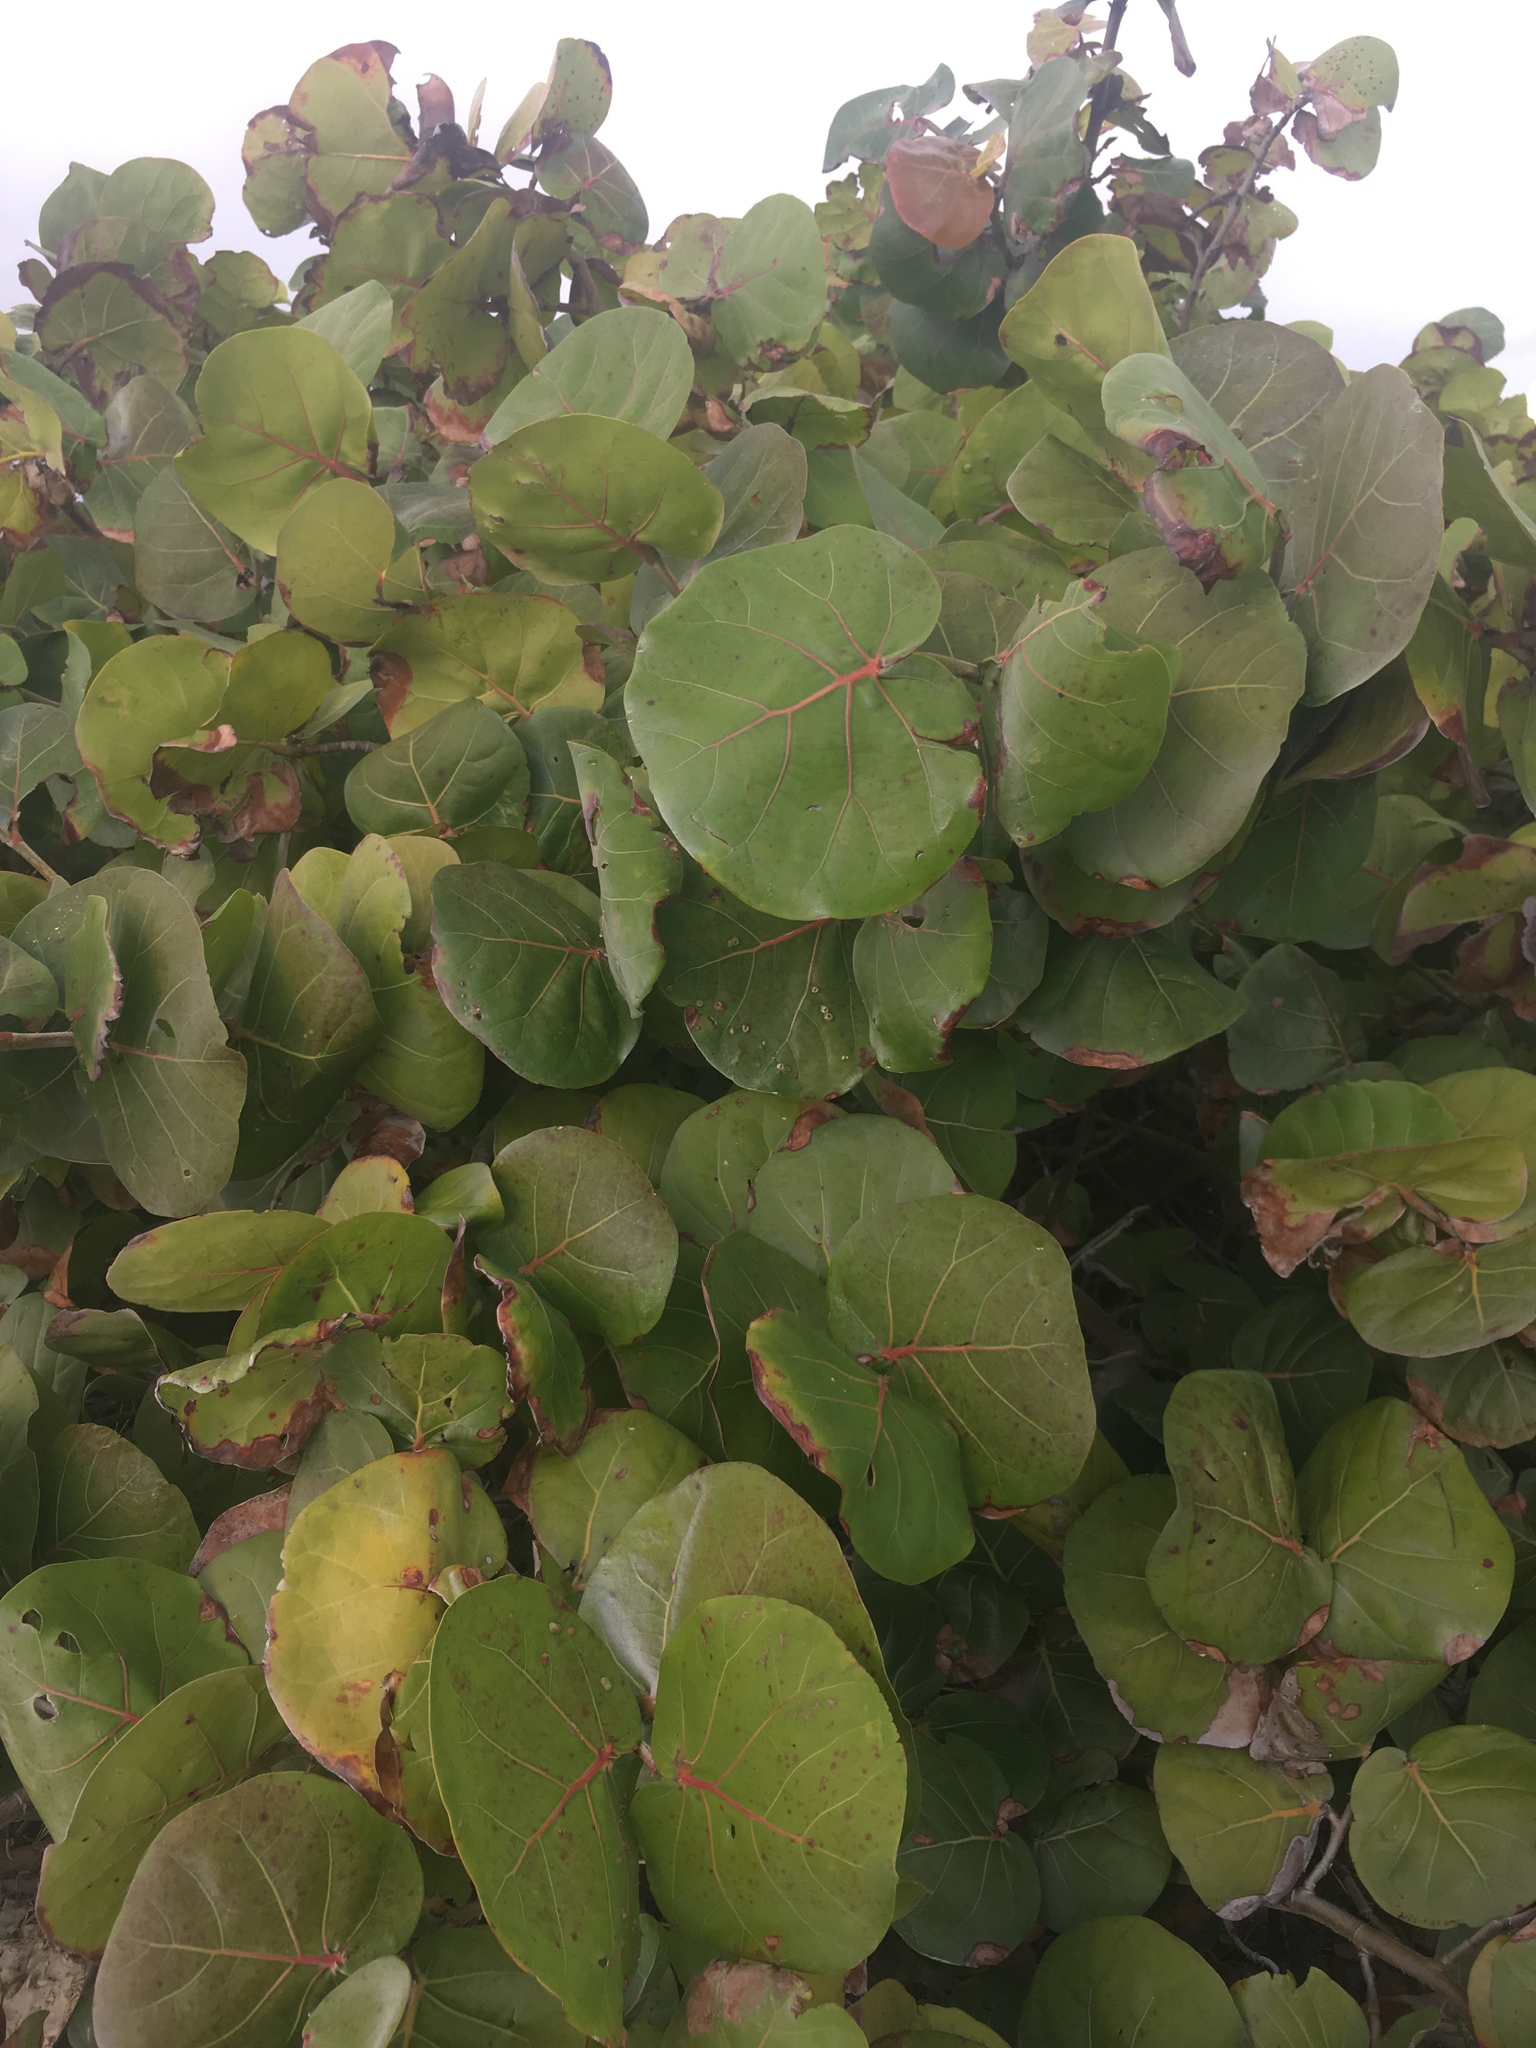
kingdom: Plantae
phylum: Tracheophyta
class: Magnoliopsida
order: Caryophyllales
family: Polygonaceae
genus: Coccoloba
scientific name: Coccoloba uvifera
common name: Seagrape
